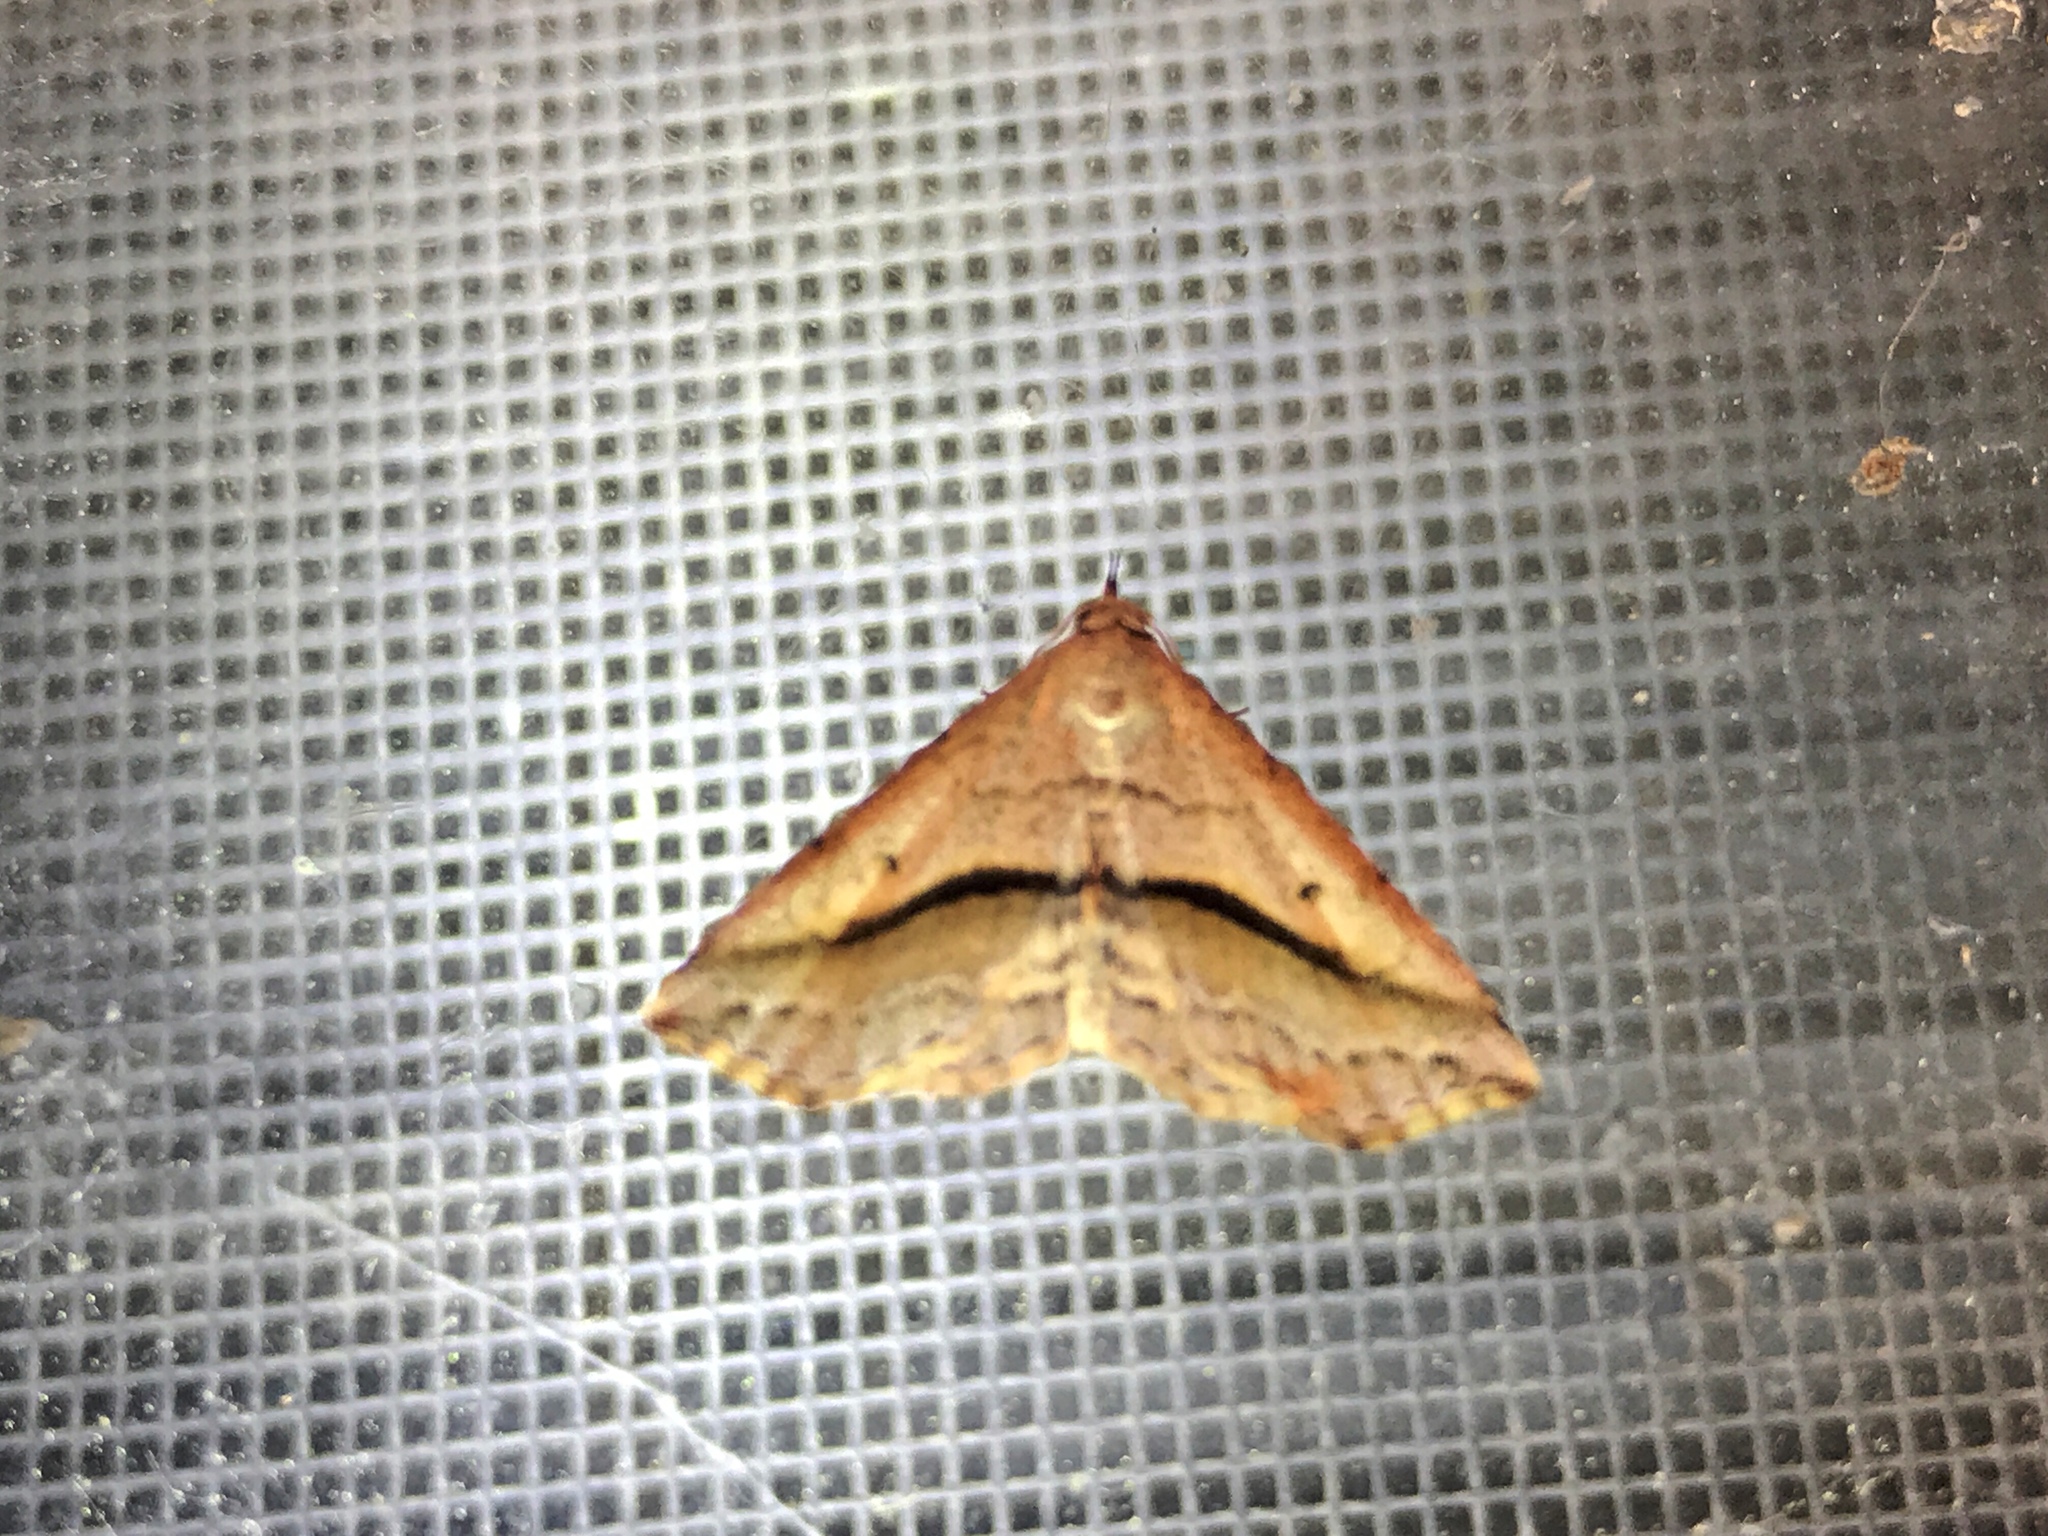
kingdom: Animalia
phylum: Arthropoda
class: Insecta
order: Lepidoptera
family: Erebidae
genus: Spargaloma
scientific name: Spargaloma perditalis
